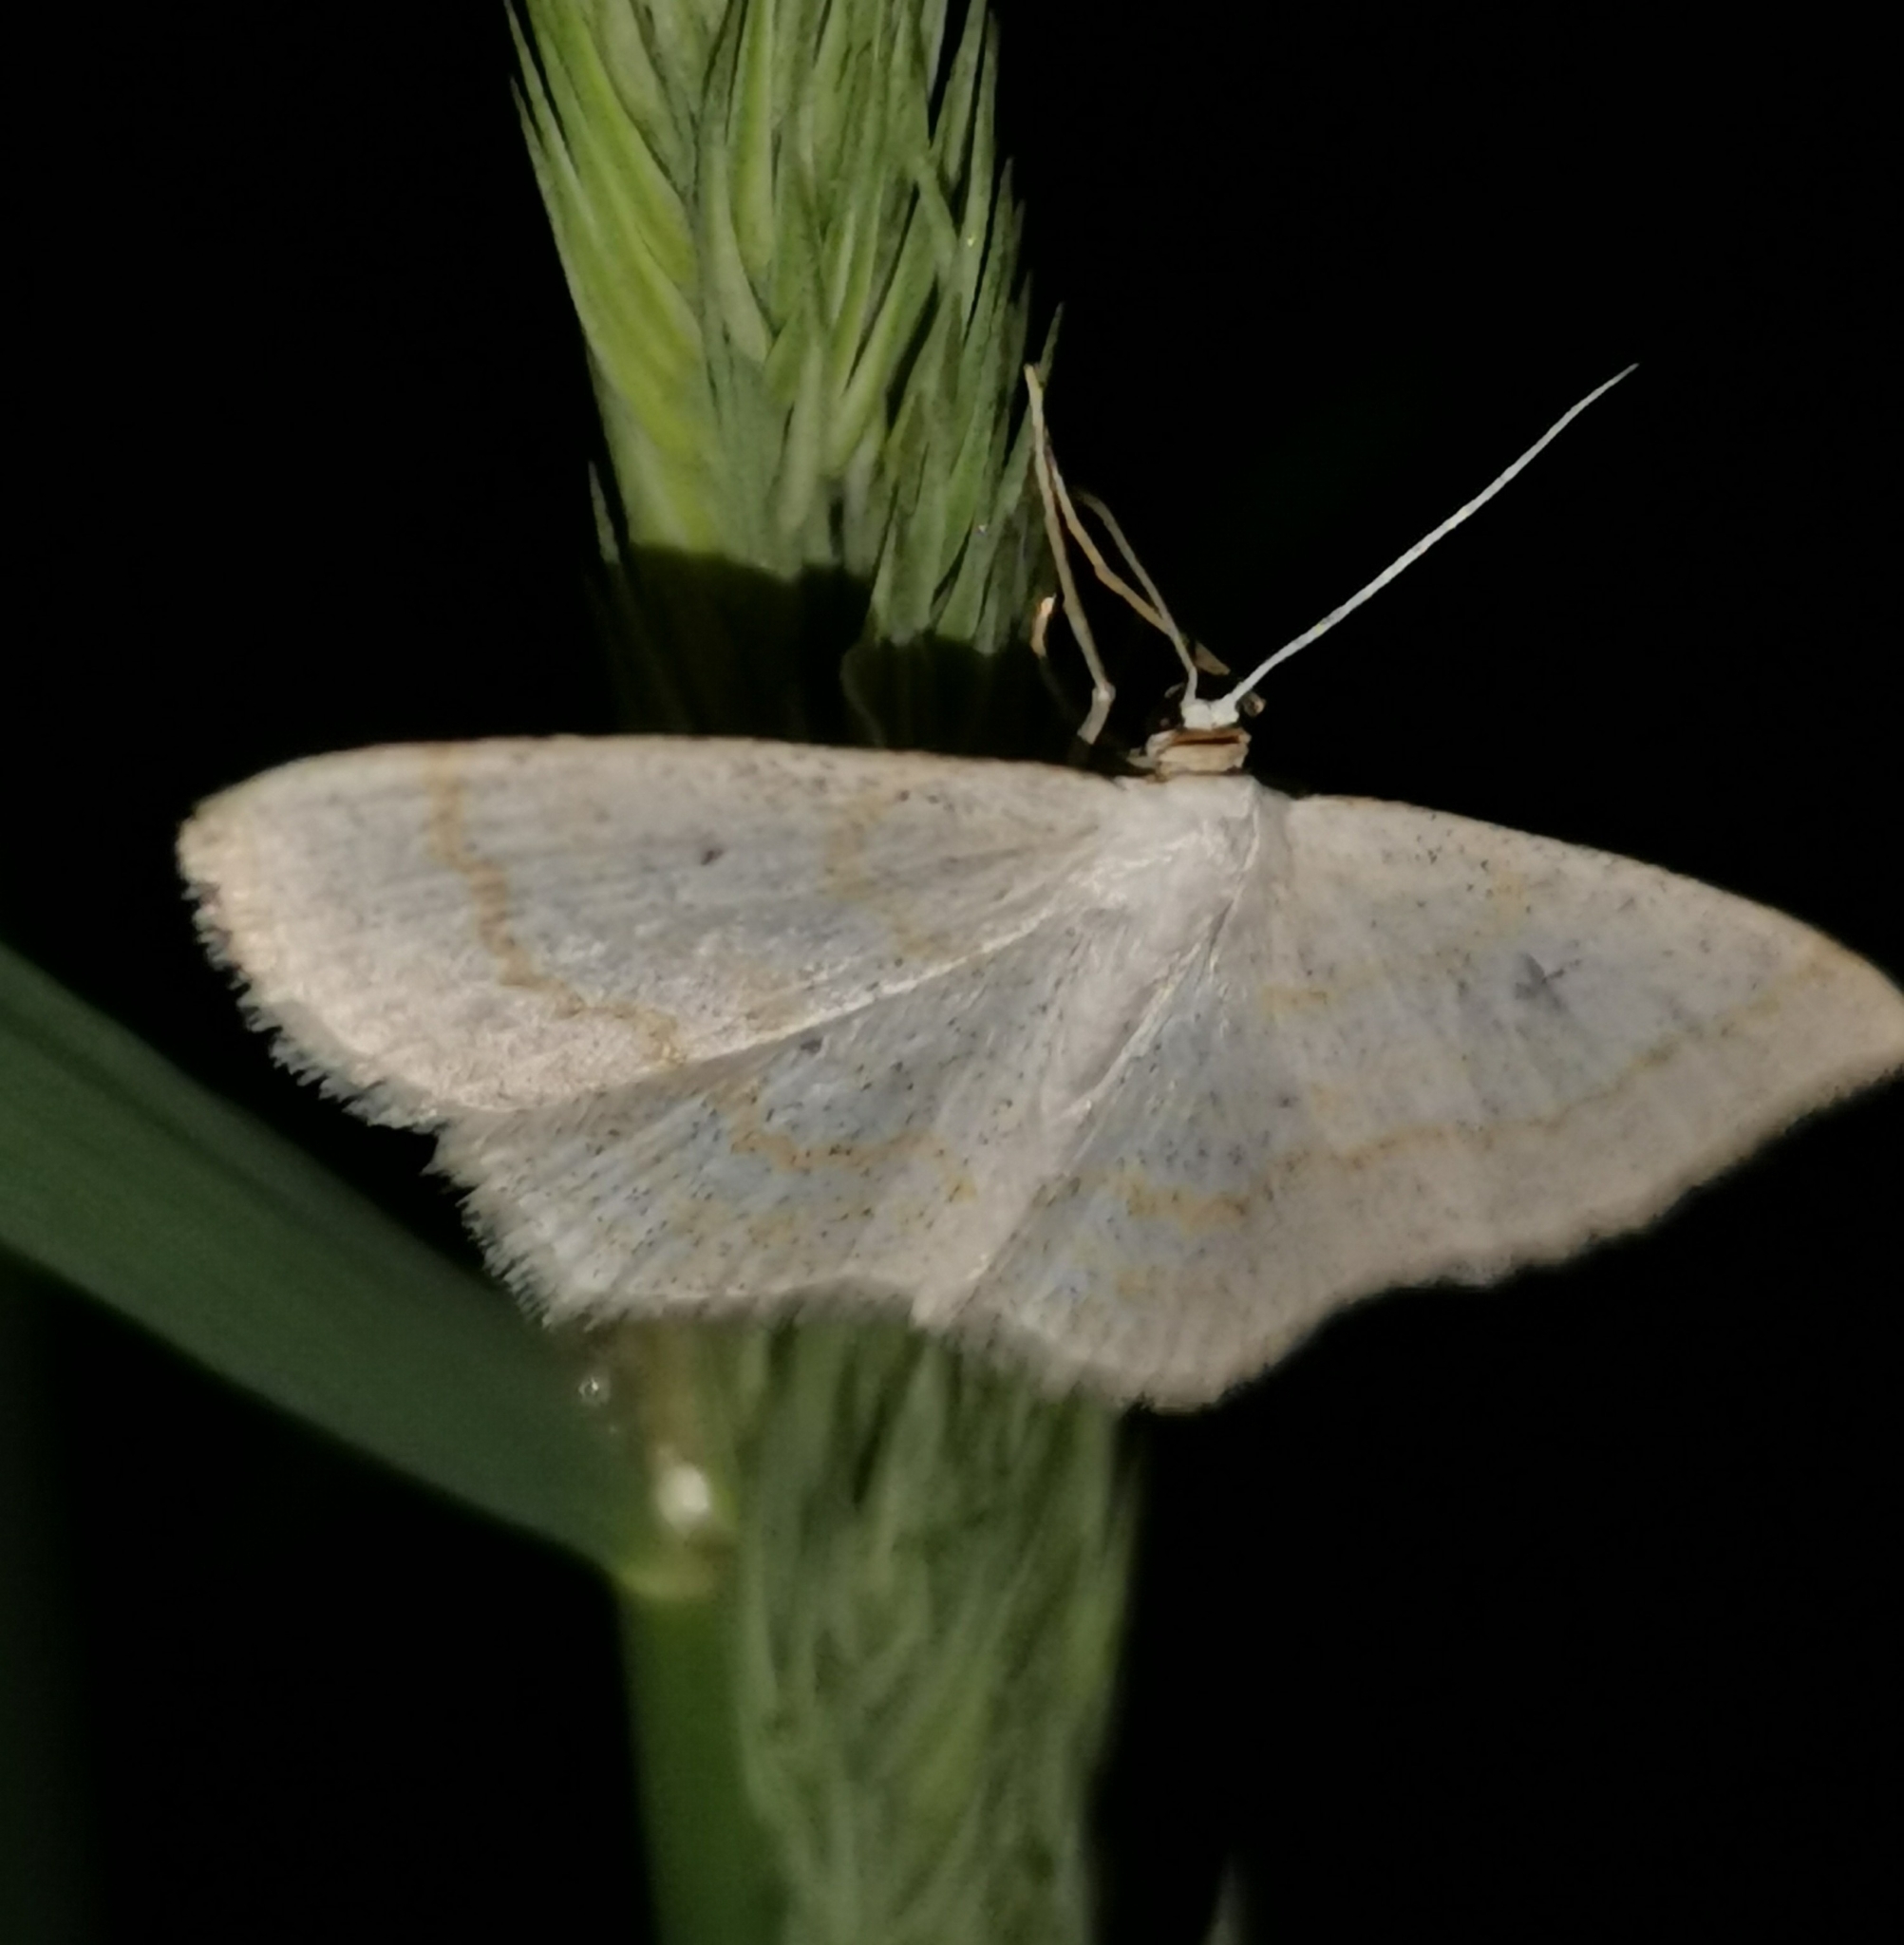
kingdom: Animalia
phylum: Arthropoda
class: Insecta
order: Lepidoptera
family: Geometridae
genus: Scopula
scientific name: Scopula immutata
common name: Lesser cream wave
